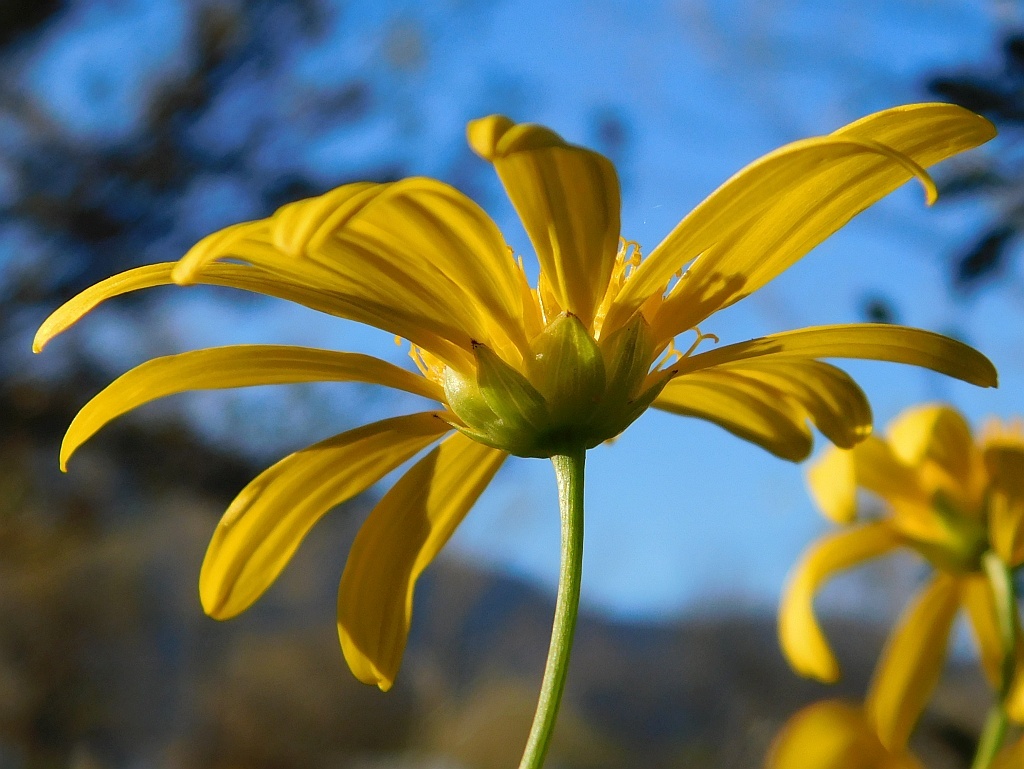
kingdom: Plantae
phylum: Tracheophyta
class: Magnoliopsida
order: Asterales
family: Asteraceae
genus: Euryops
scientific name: Euryops chrysanthemoides
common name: Bull's eye
